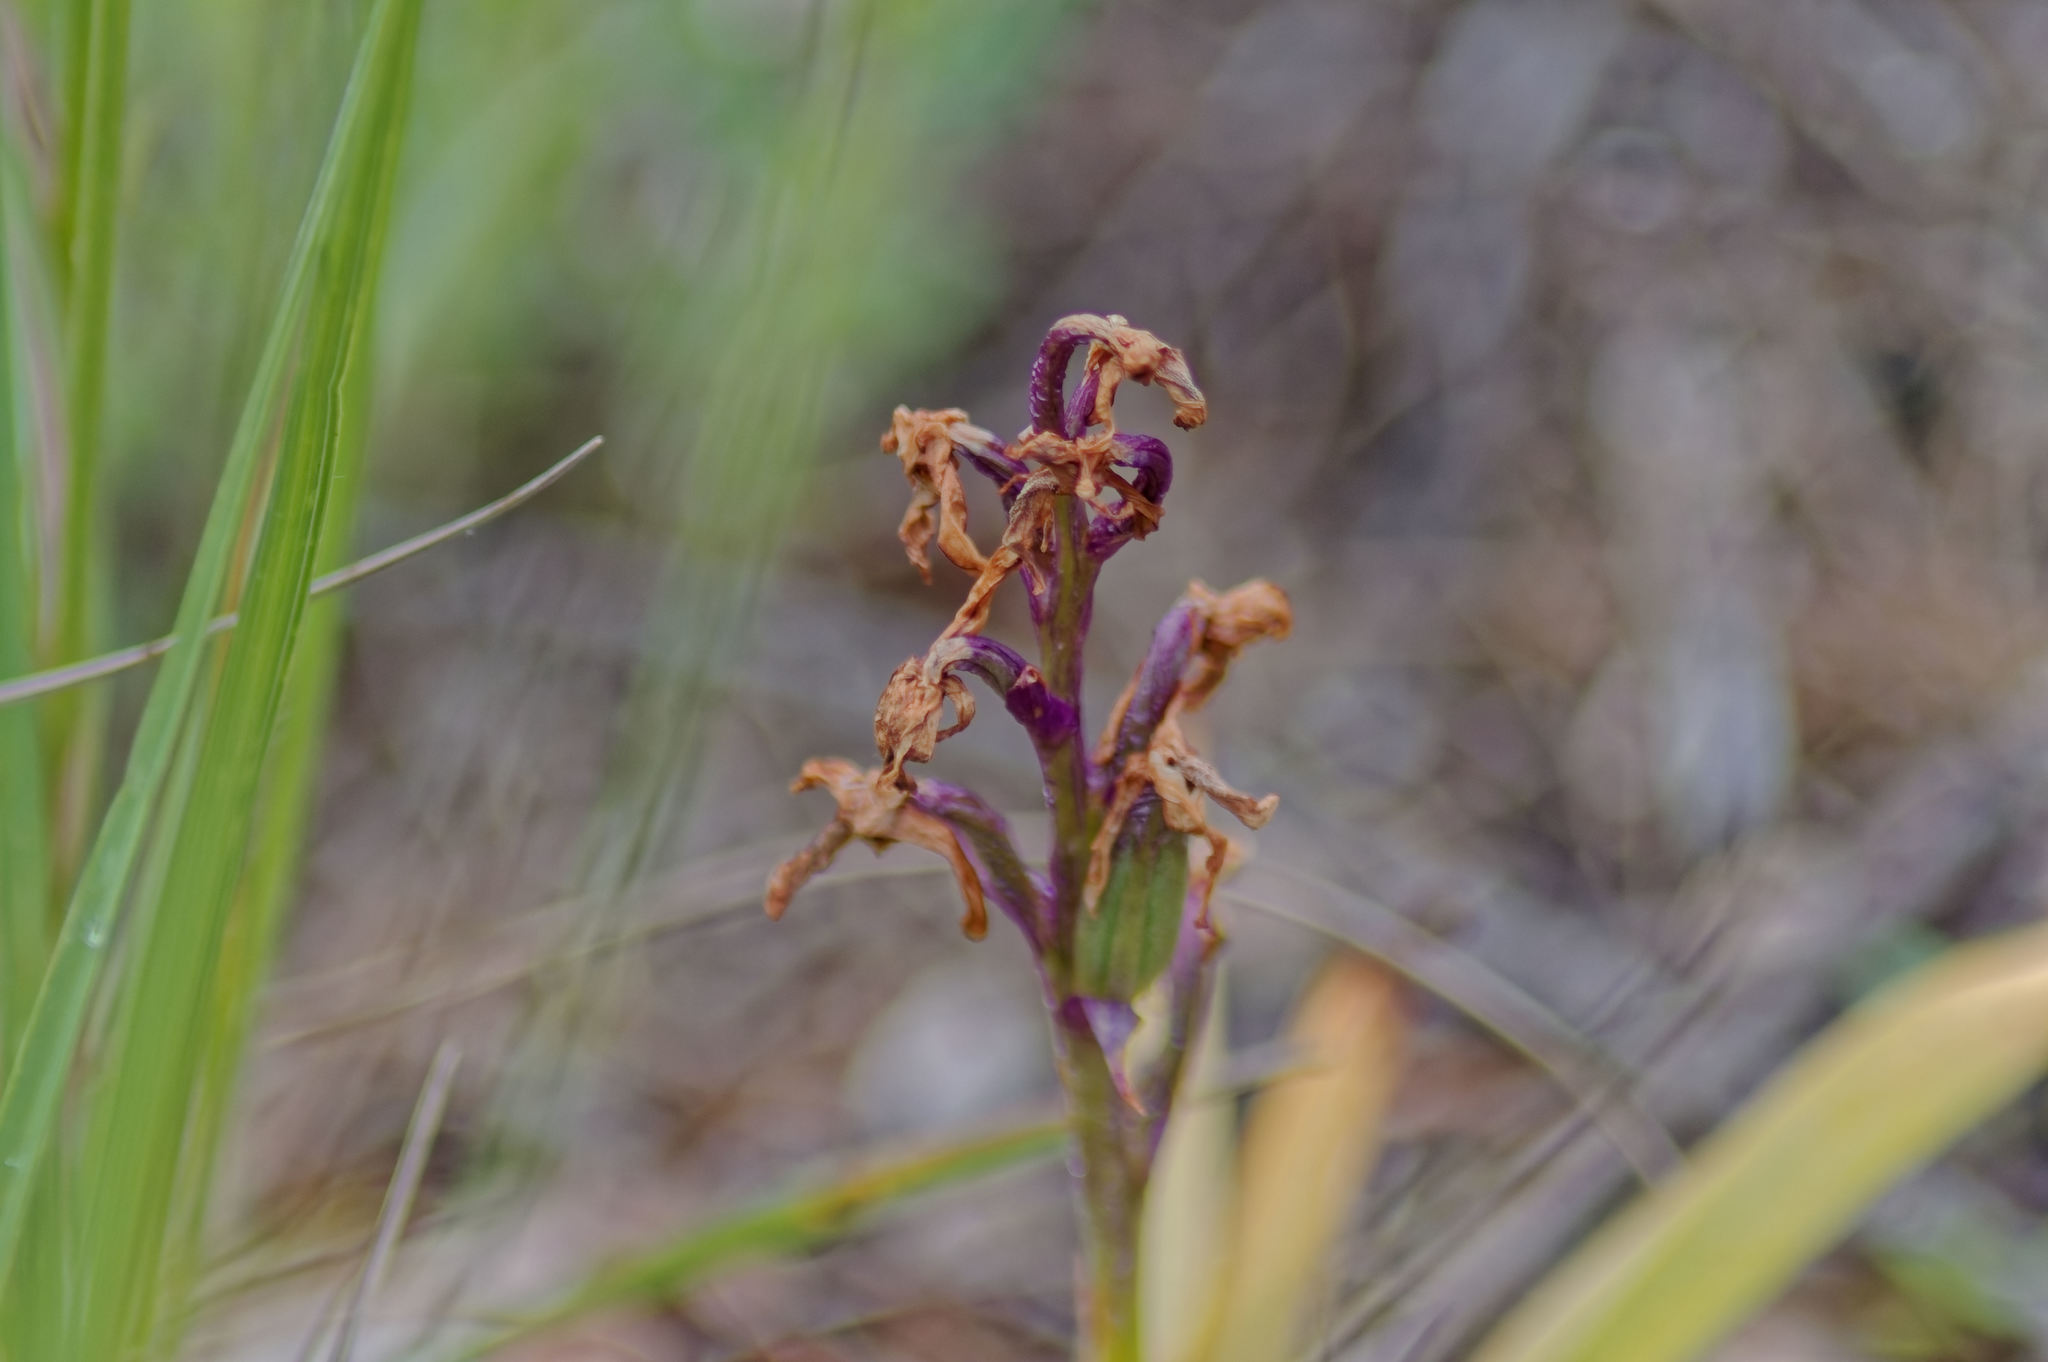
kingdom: Plantae
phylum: Tracheophyta
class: Liliopsida
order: Asparagales
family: Orchidaceae
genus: Anacamptis
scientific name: Anacamptis morio
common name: Green-winged orchid
